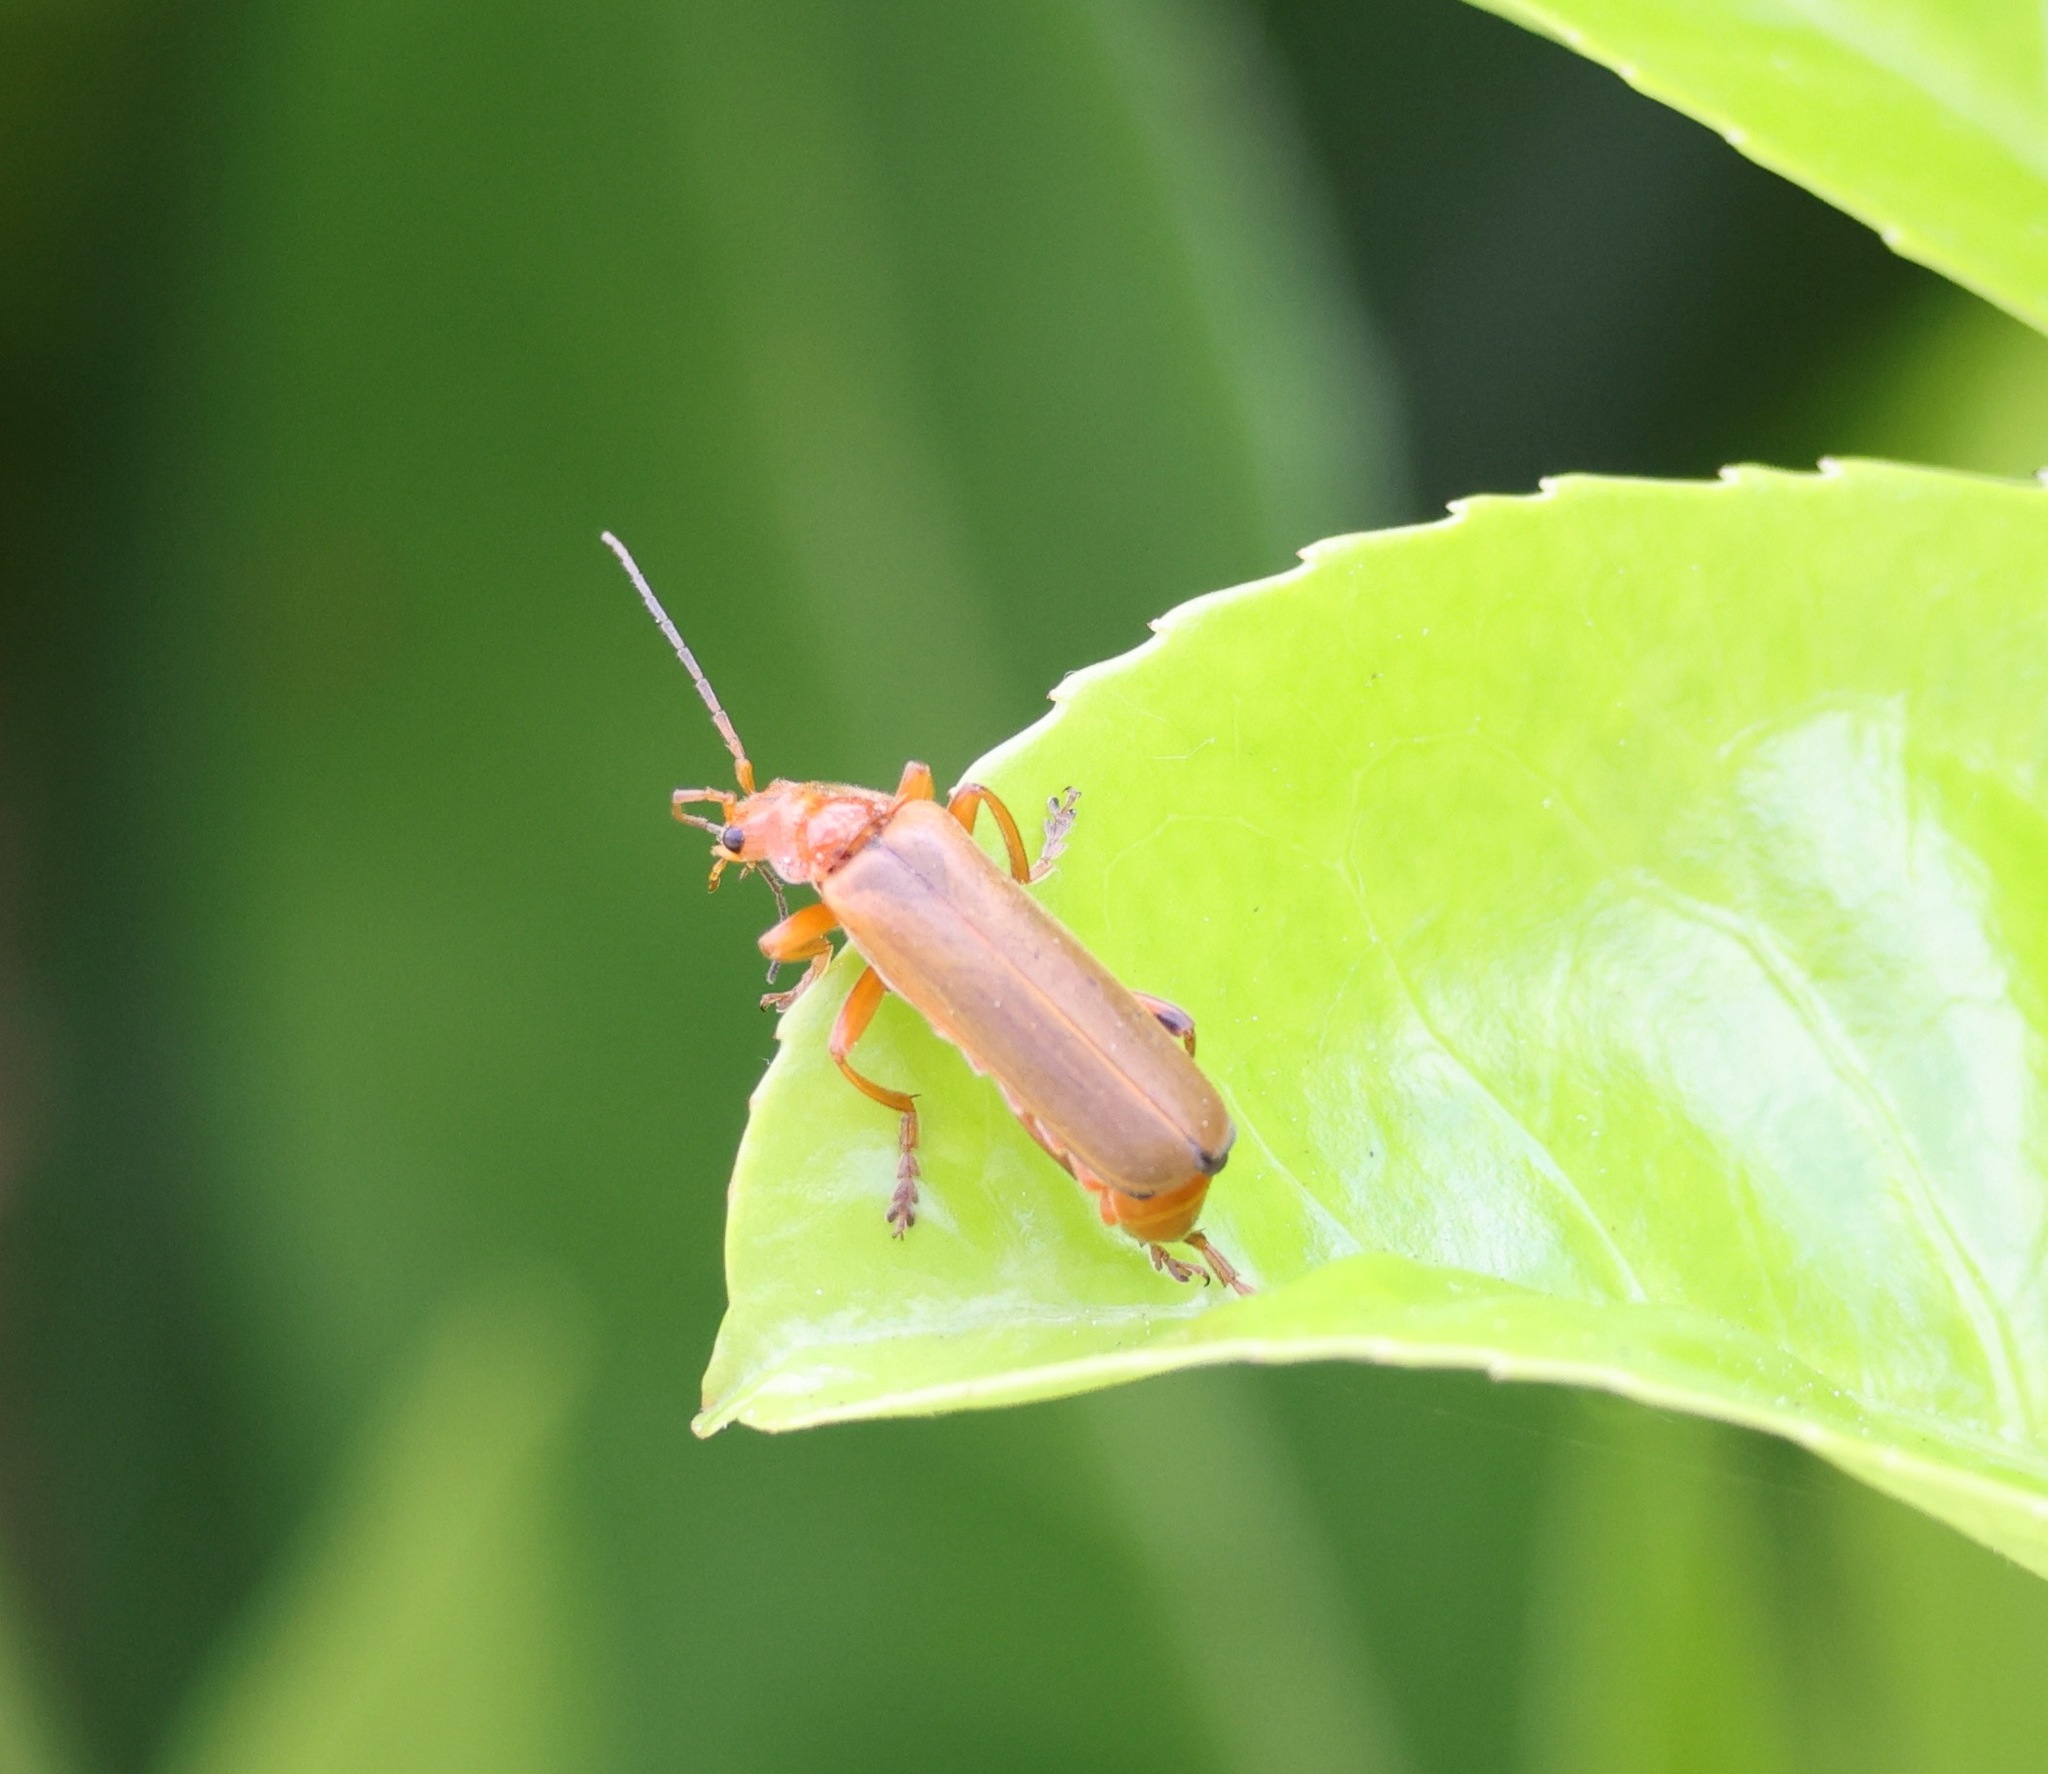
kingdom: Animalia
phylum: Arthropoda
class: Insecta
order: Coleoptera
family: Cantharidae
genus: Cantharis
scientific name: Cantharis livida
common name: Livid soldier beetle
